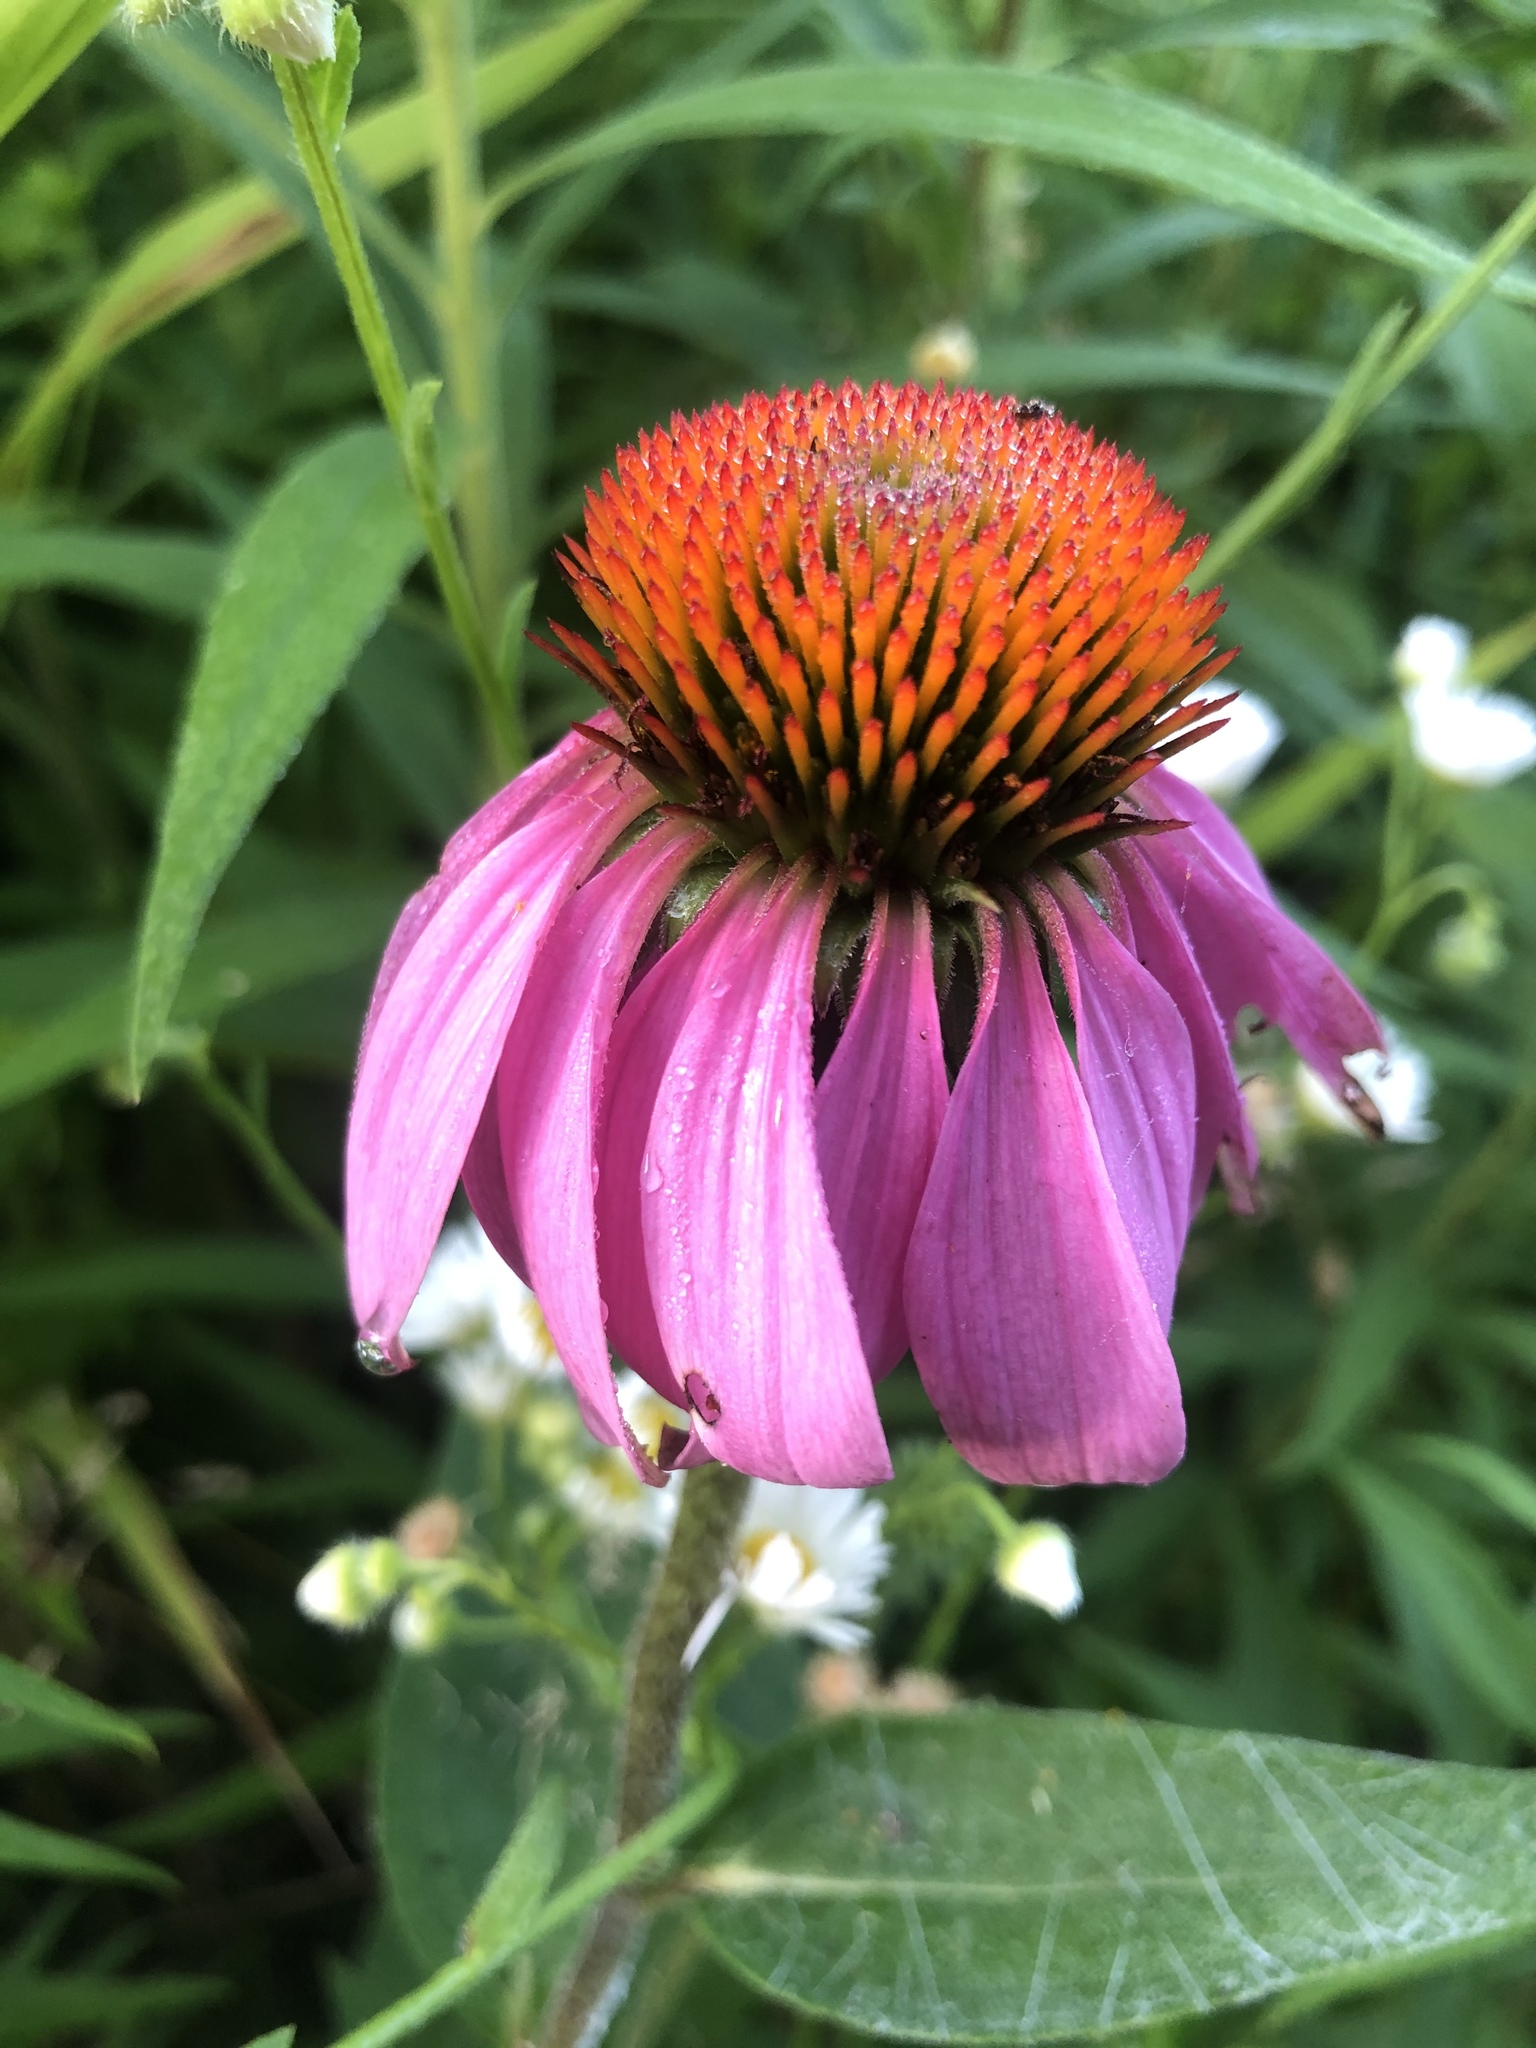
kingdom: Plantae
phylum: Tracheophyta
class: Magnoliopsida
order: Asterales
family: Asteraceae
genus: Echinacea
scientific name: Echinacea purpurea
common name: Broad-leaved purple coneflower
